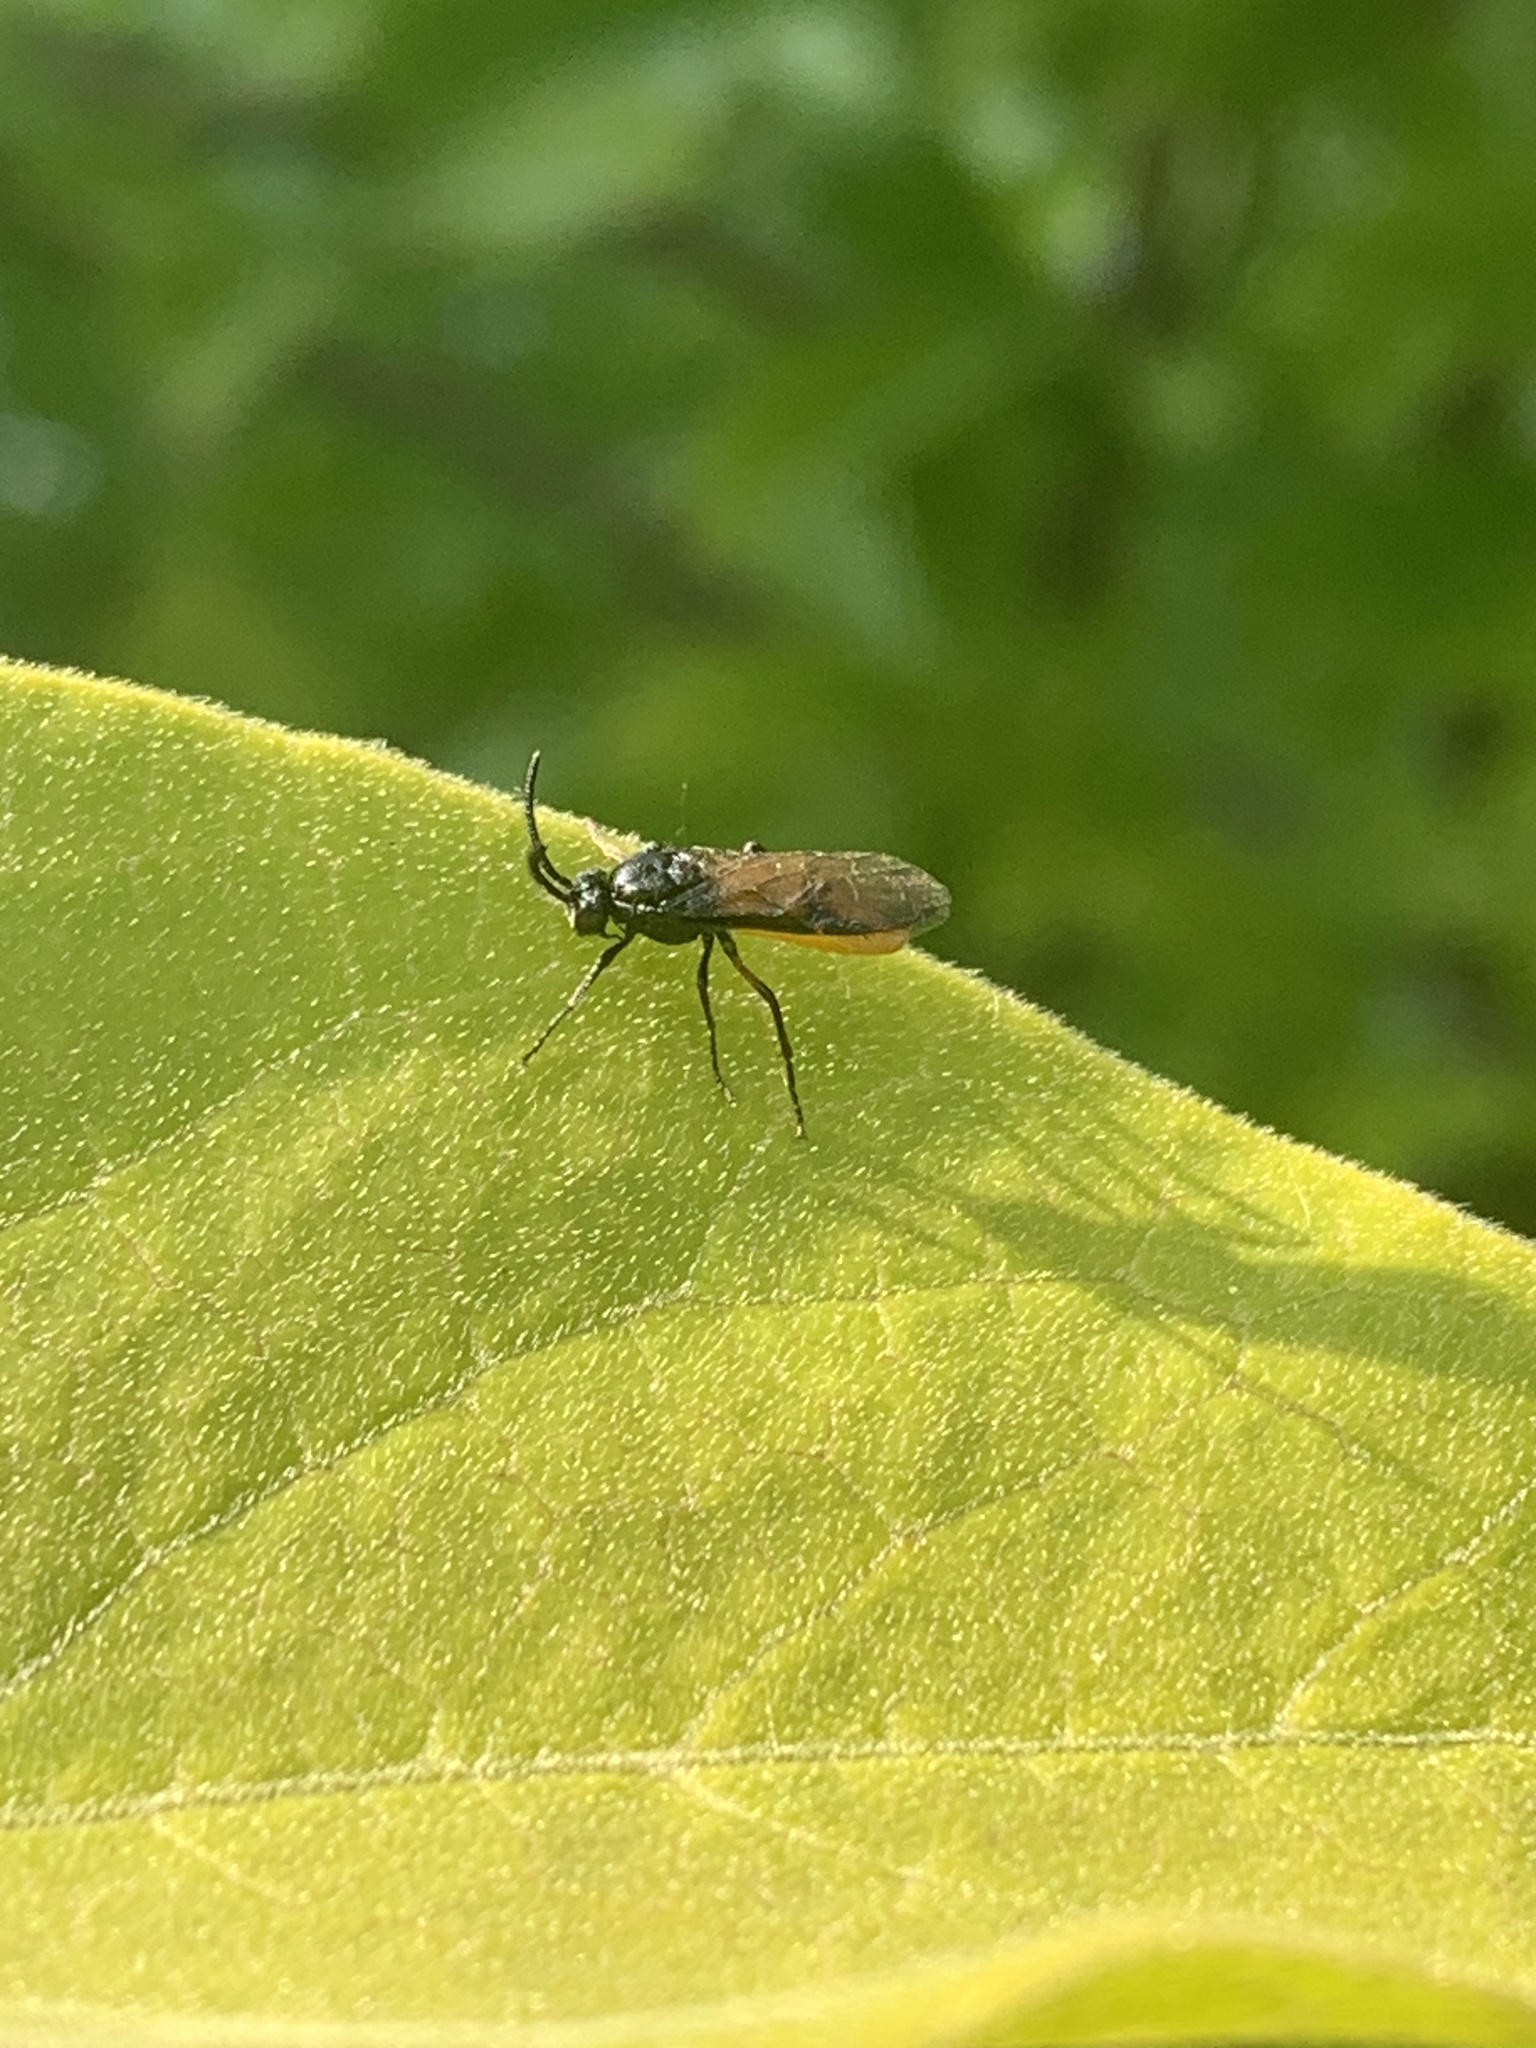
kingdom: Animalia
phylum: Arthropoda
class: Insecta
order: Hymenoptera
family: Argidae
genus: Arge
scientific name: Arge pagana
